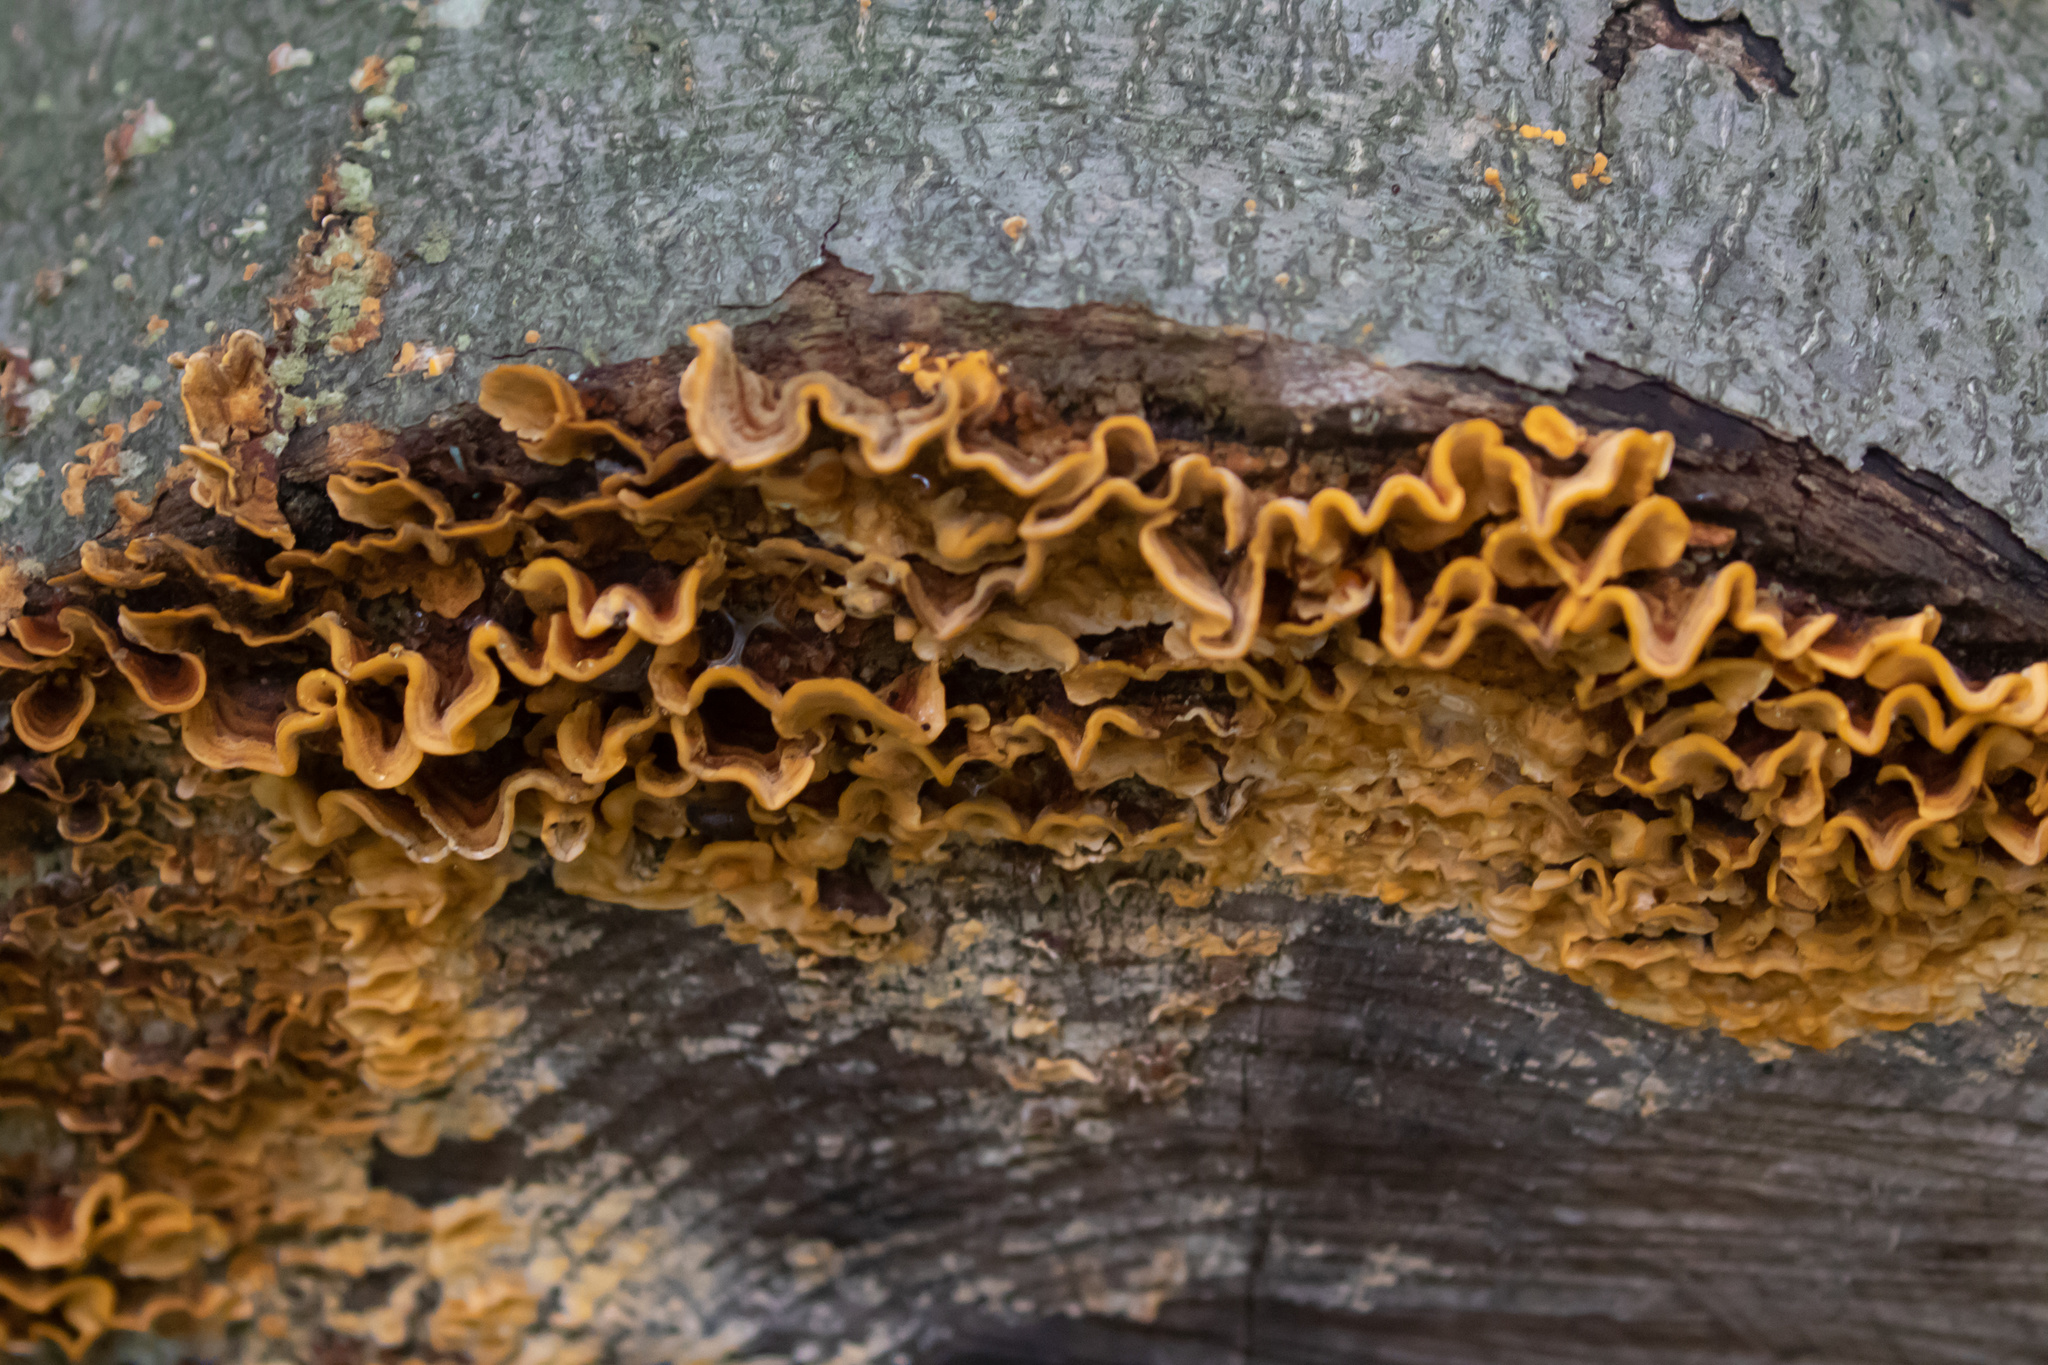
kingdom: Fungi
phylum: Basidiomycota
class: Agaricomycetes
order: Russulales
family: Stereaceae
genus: Stereum
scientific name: Stereum complicatum
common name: Crowded parchment
